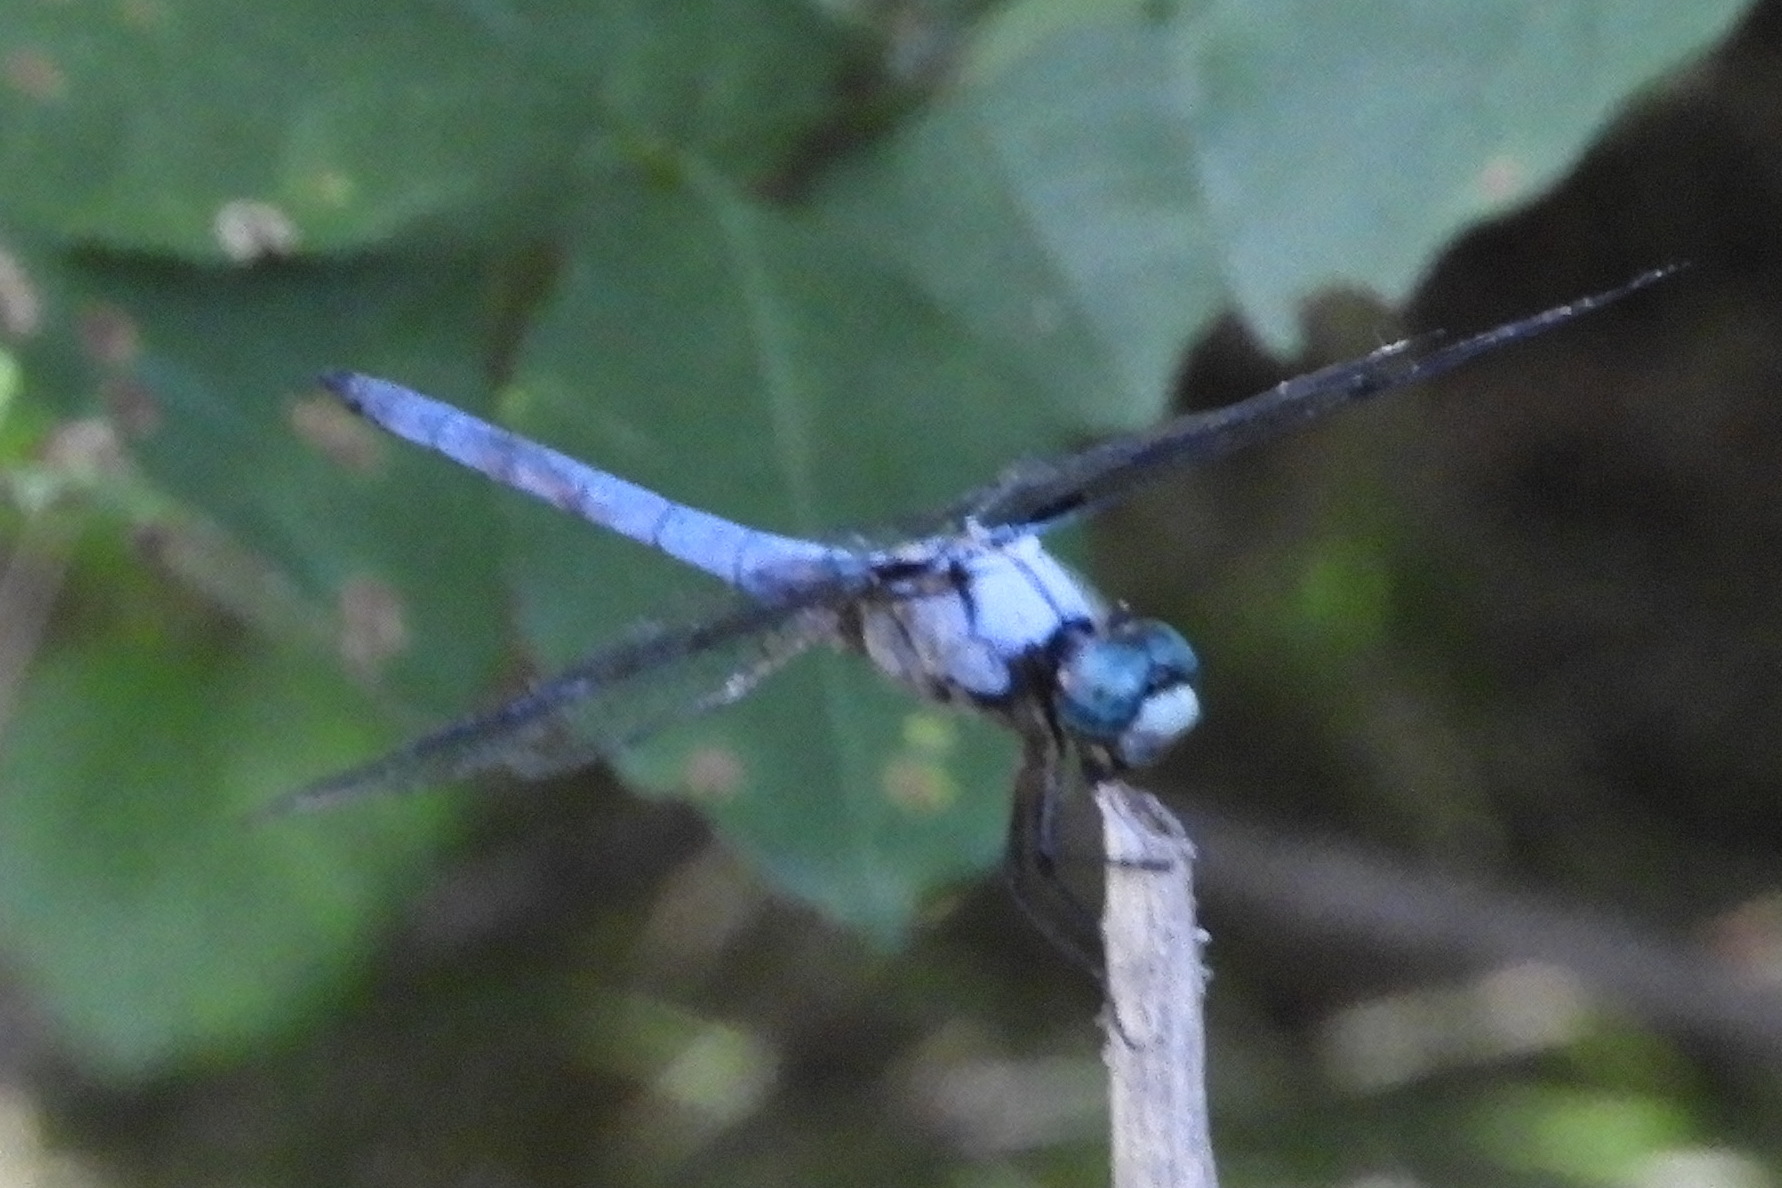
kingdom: Animalia
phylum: Arthropoda
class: Insecta
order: Odonata
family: Libellulidae
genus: Libellula
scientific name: Libellula vibrans
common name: Great blue skimmer
